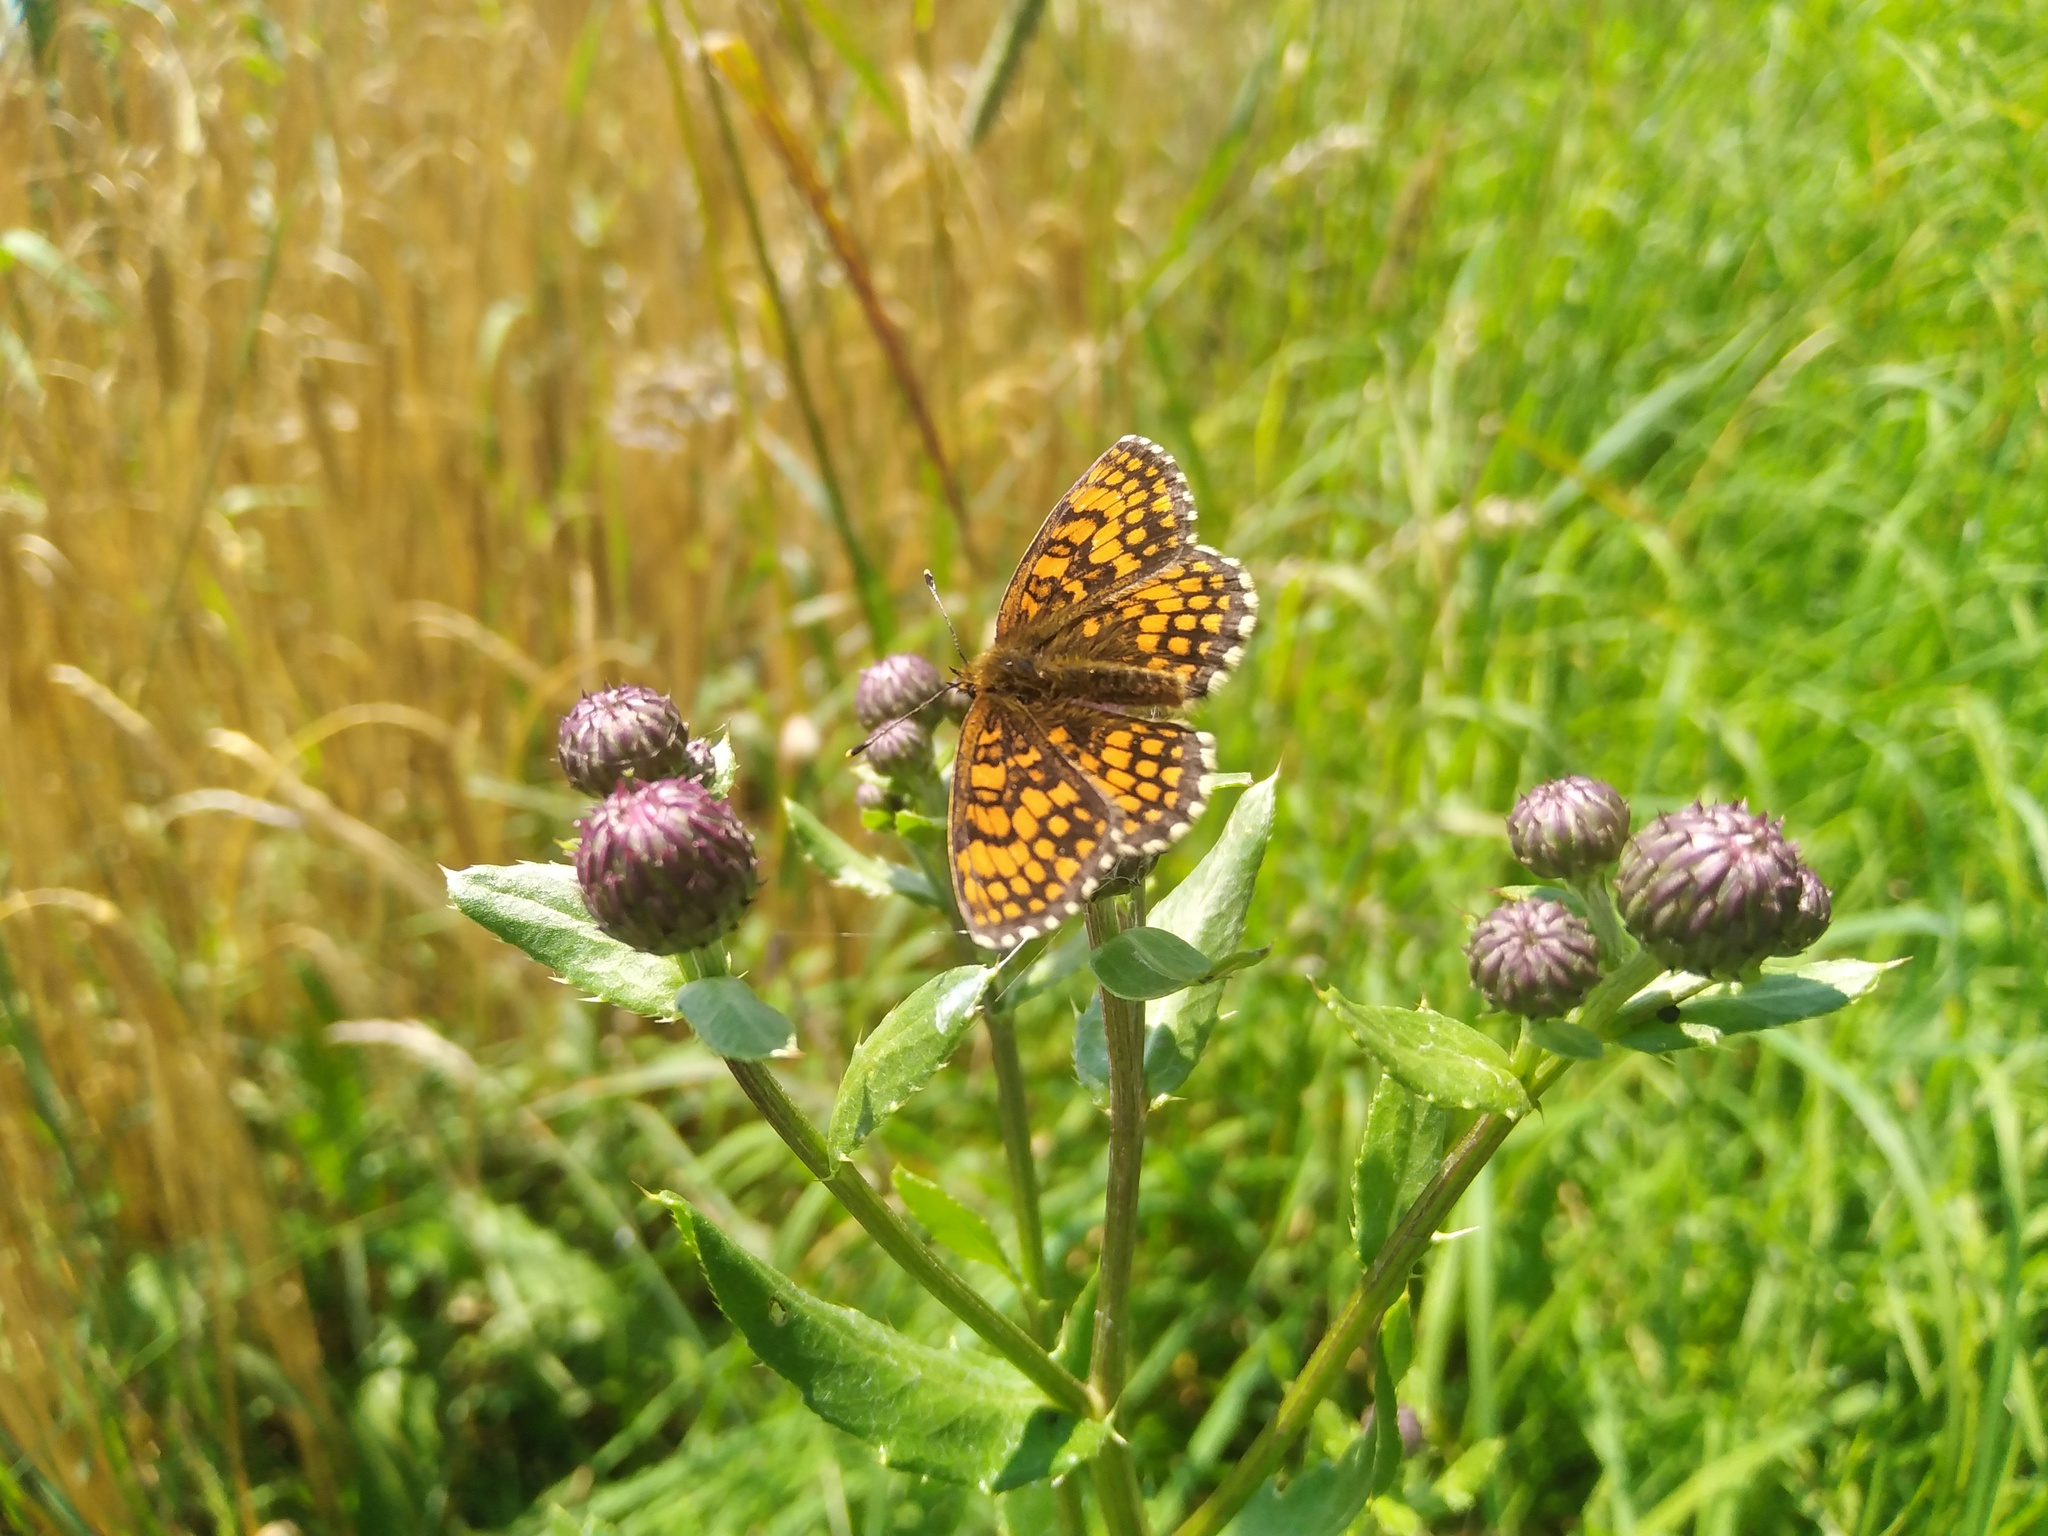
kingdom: Animalia
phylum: Arthropoda
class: Insecta
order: Lepidoptera
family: Nymphalidae
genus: Melitaea
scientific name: Melitaea athalia
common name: Heath fritillary
